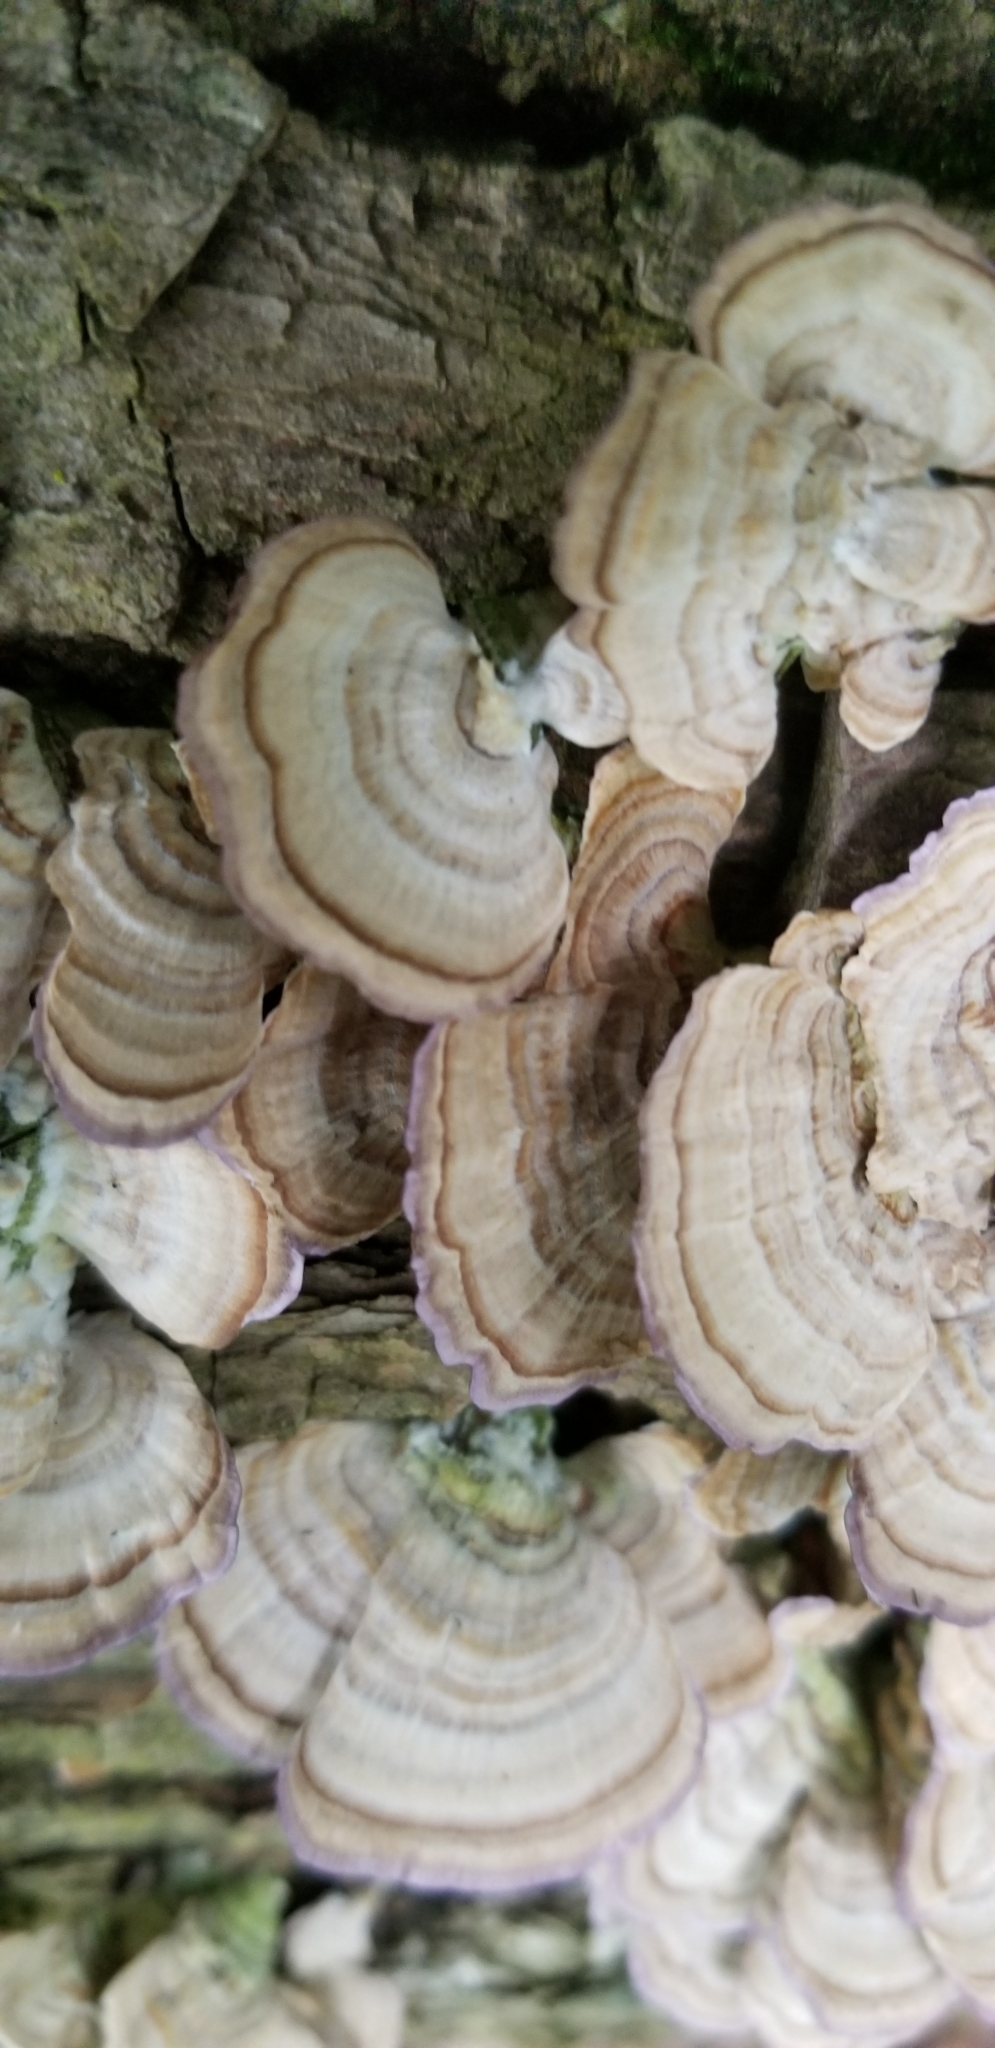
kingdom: Fungi
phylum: Basidiomycota
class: Agaricomycetes
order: Hymenochaetales
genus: Trichaptum
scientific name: Trichaptum biforme
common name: Violet-toothed polypore
